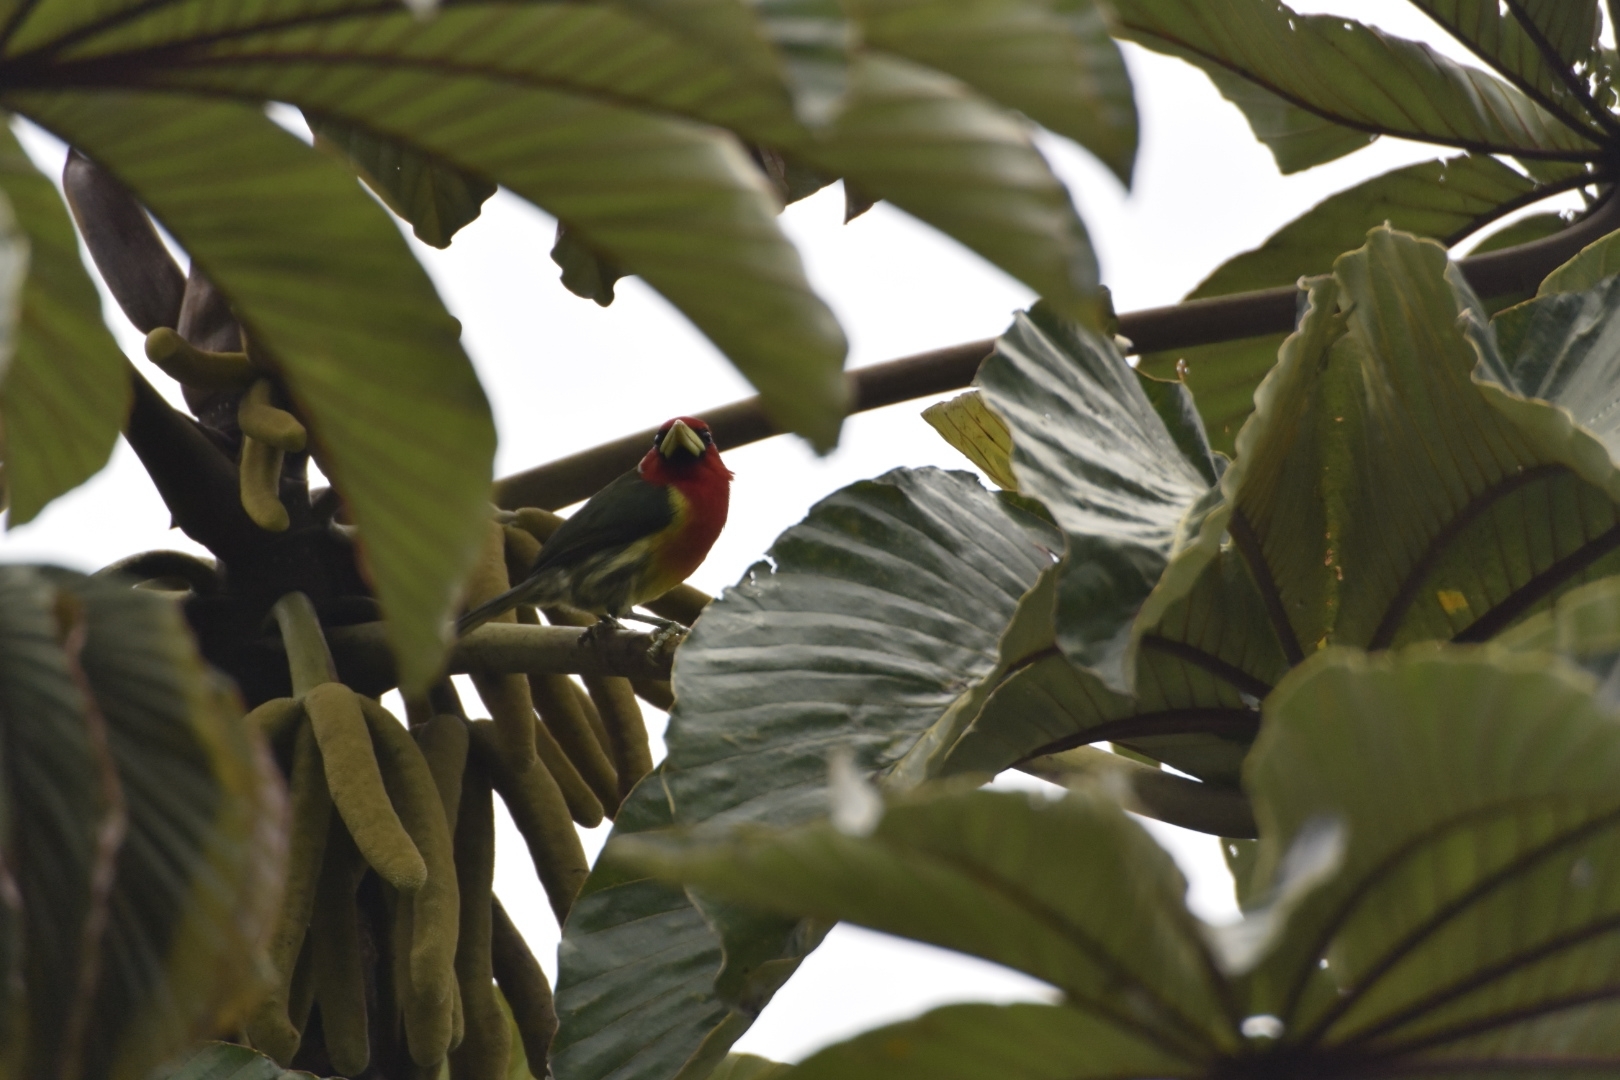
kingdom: Animalia
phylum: Chordata
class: Aves
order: Piciformes
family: Capitonidae
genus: Eubucco
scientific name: Eubucco bourcierii
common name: Red-headed barbet
